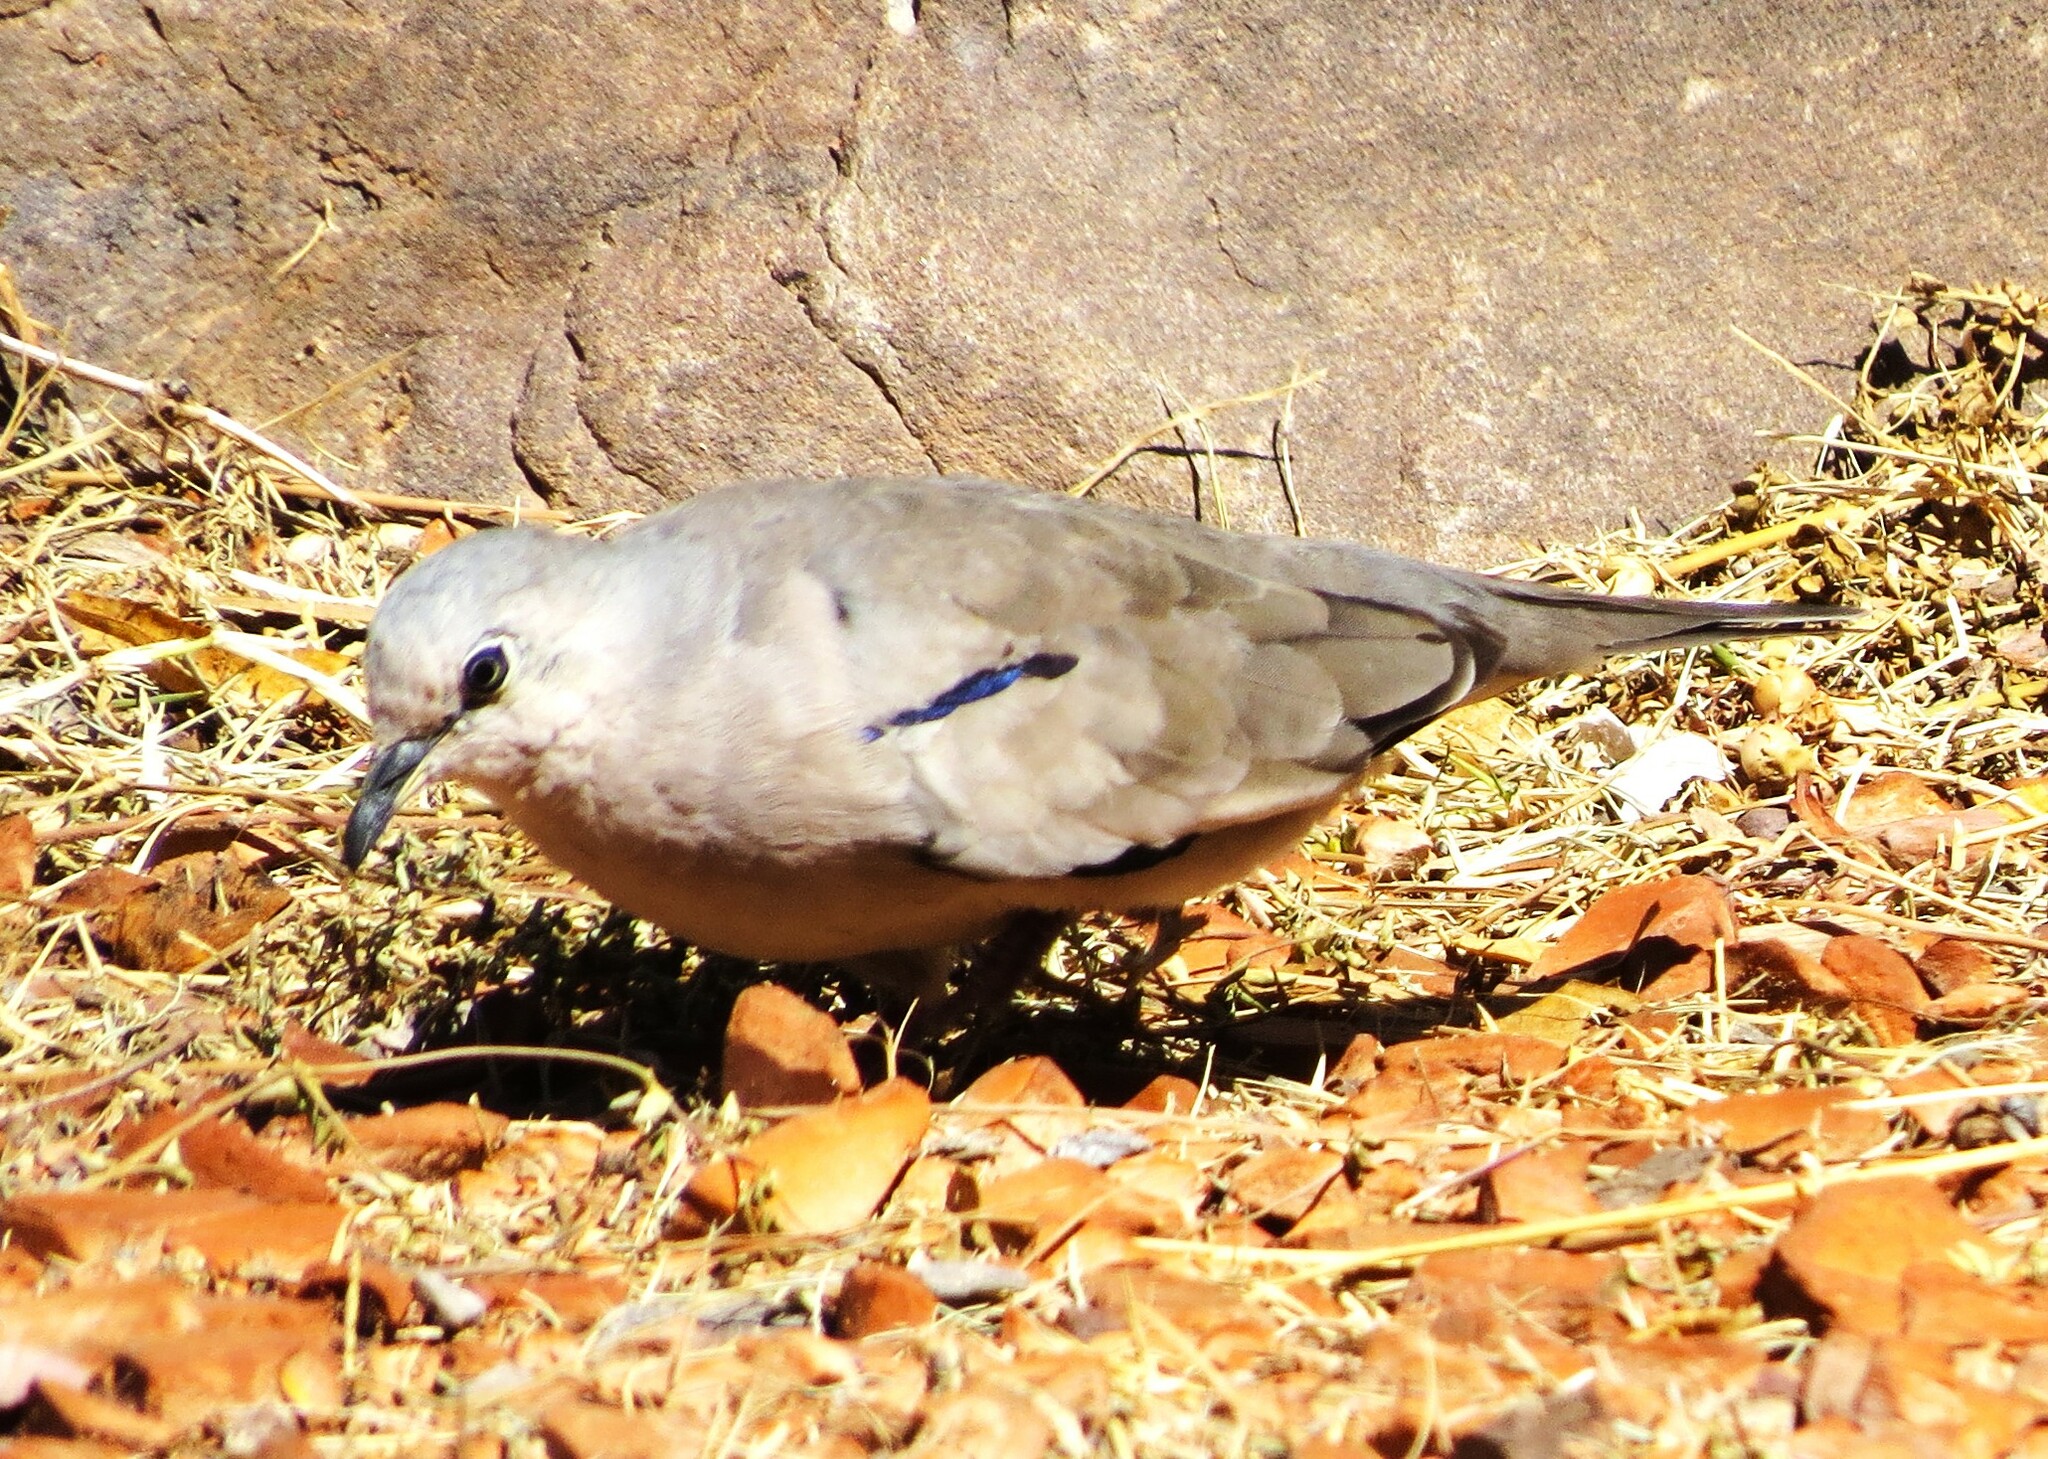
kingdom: Animalia
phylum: Chordata
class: Aves
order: Columbiformes
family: Columbidae
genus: Columbina
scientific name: Columbina picui
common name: Picui ground dove
